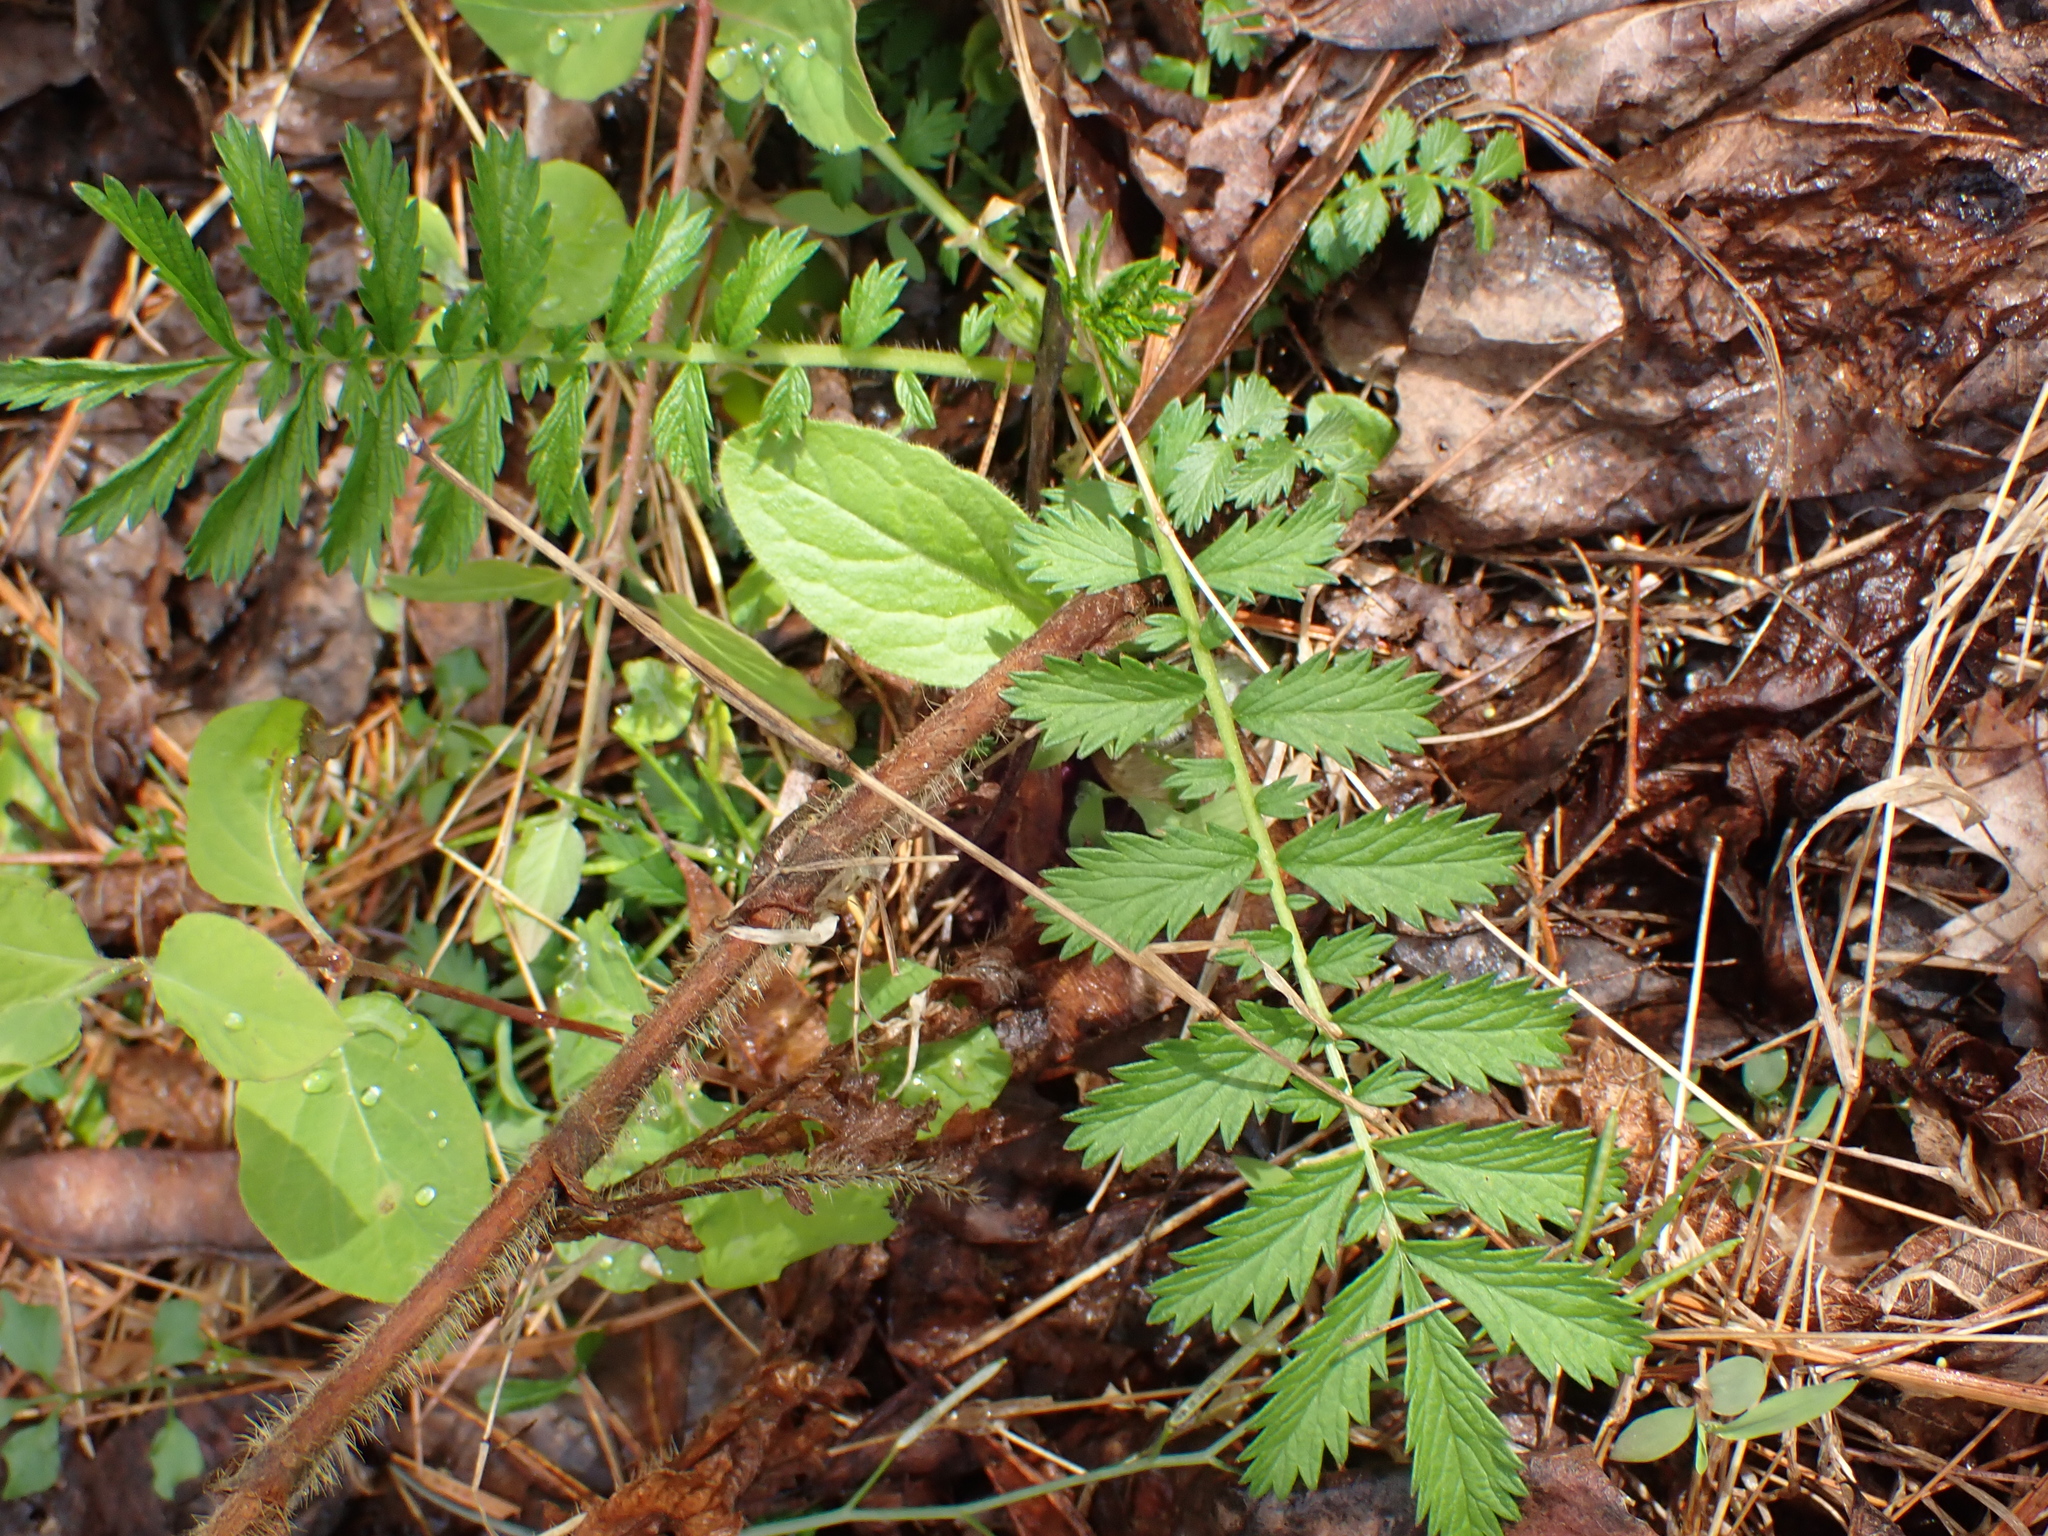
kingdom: Plantae
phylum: Tracheophyta
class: Magnoliopsida
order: Rosales
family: Rosaceae
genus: Agrimonia
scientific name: Agrimonia parviflora
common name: Harvest-lice
